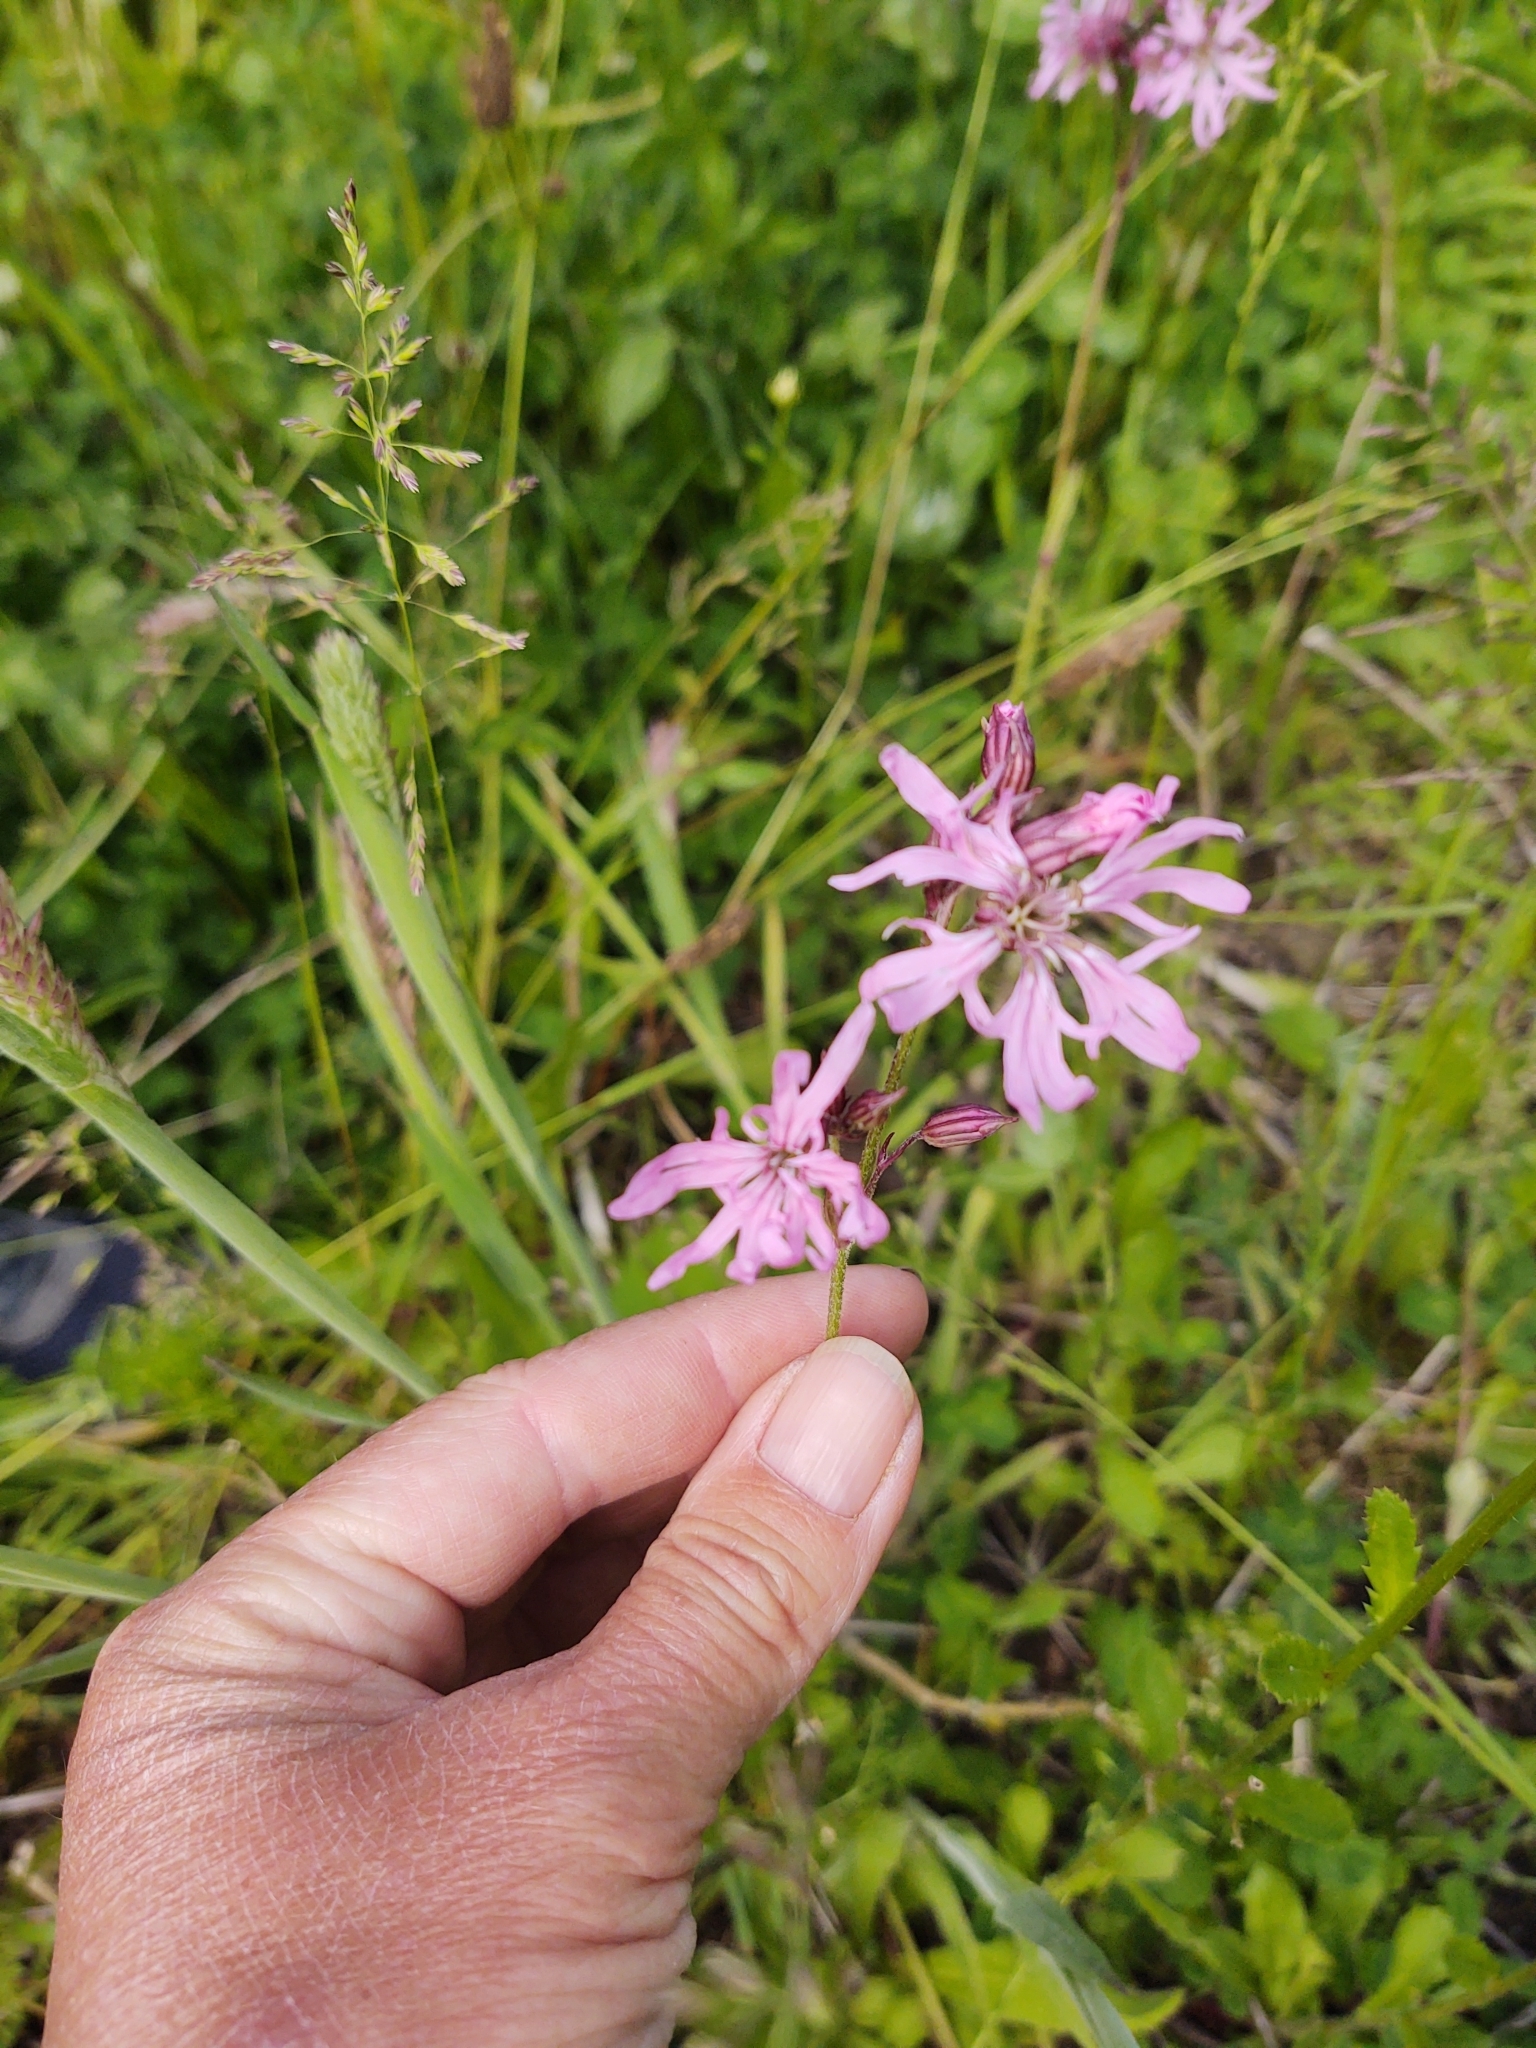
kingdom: Plantae
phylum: Tracheophyta
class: Magnoliopsida
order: Caryophyllales
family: Caryophyllaceae
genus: Silene
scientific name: Silene flos-cuculi
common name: Ragged-robin
